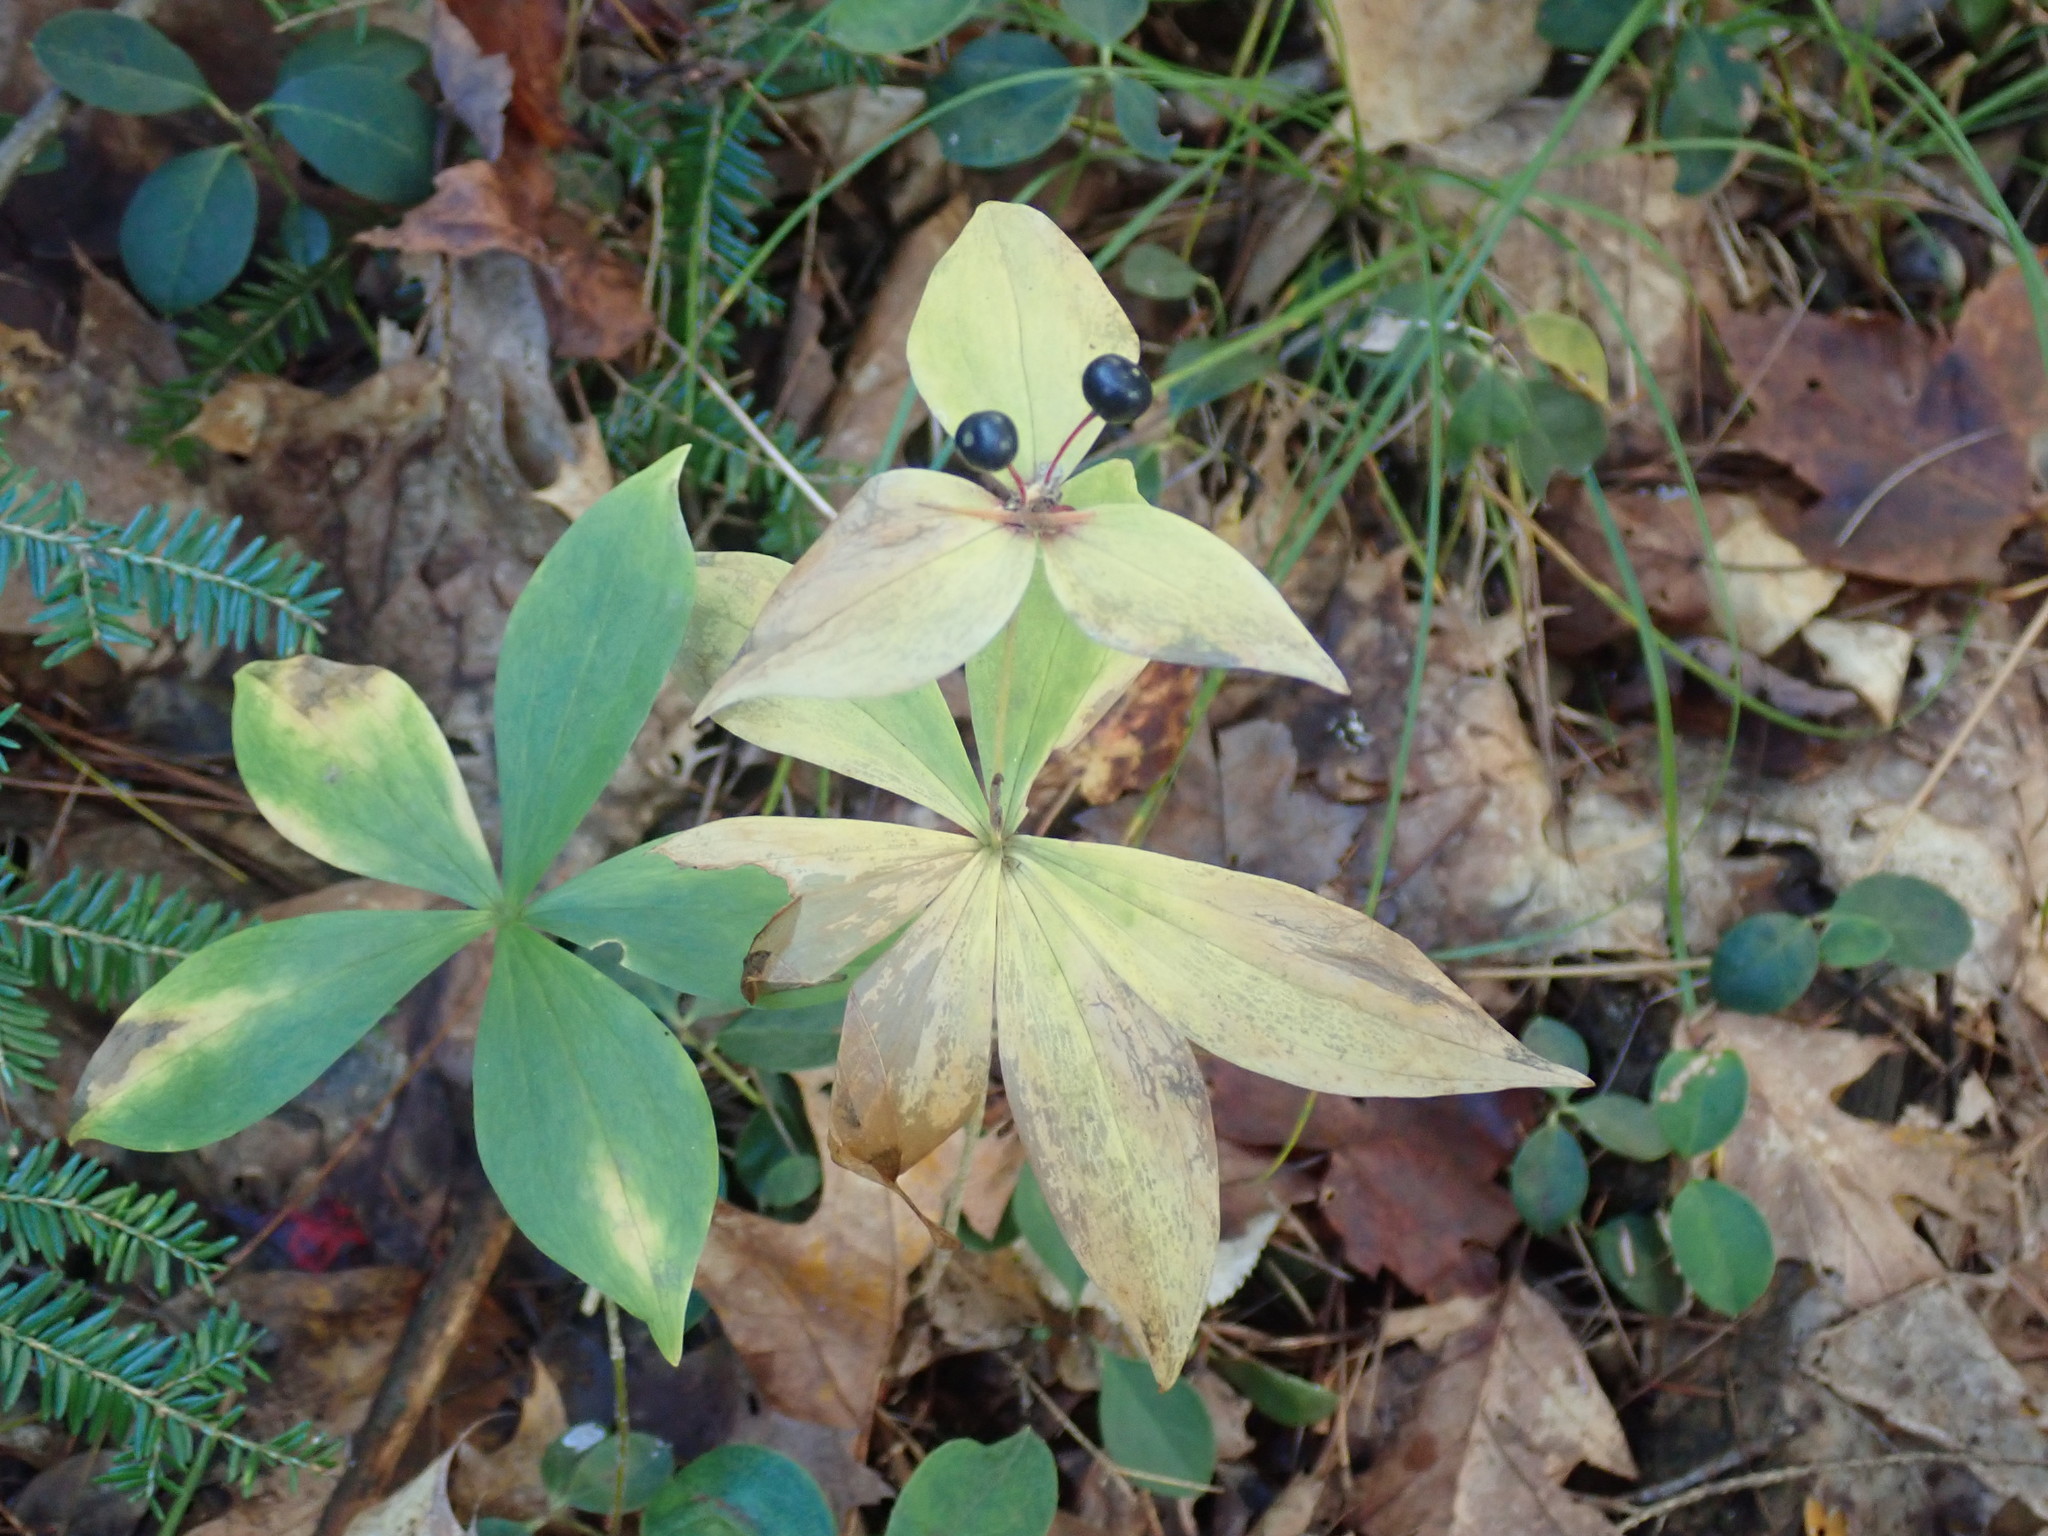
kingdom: Plantae
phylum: Tracheophyta
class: Liliopsida
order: Liliales
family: Liliaceae
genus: Medeola
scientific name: Medeola virginiana
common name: Indian cucumber-root
